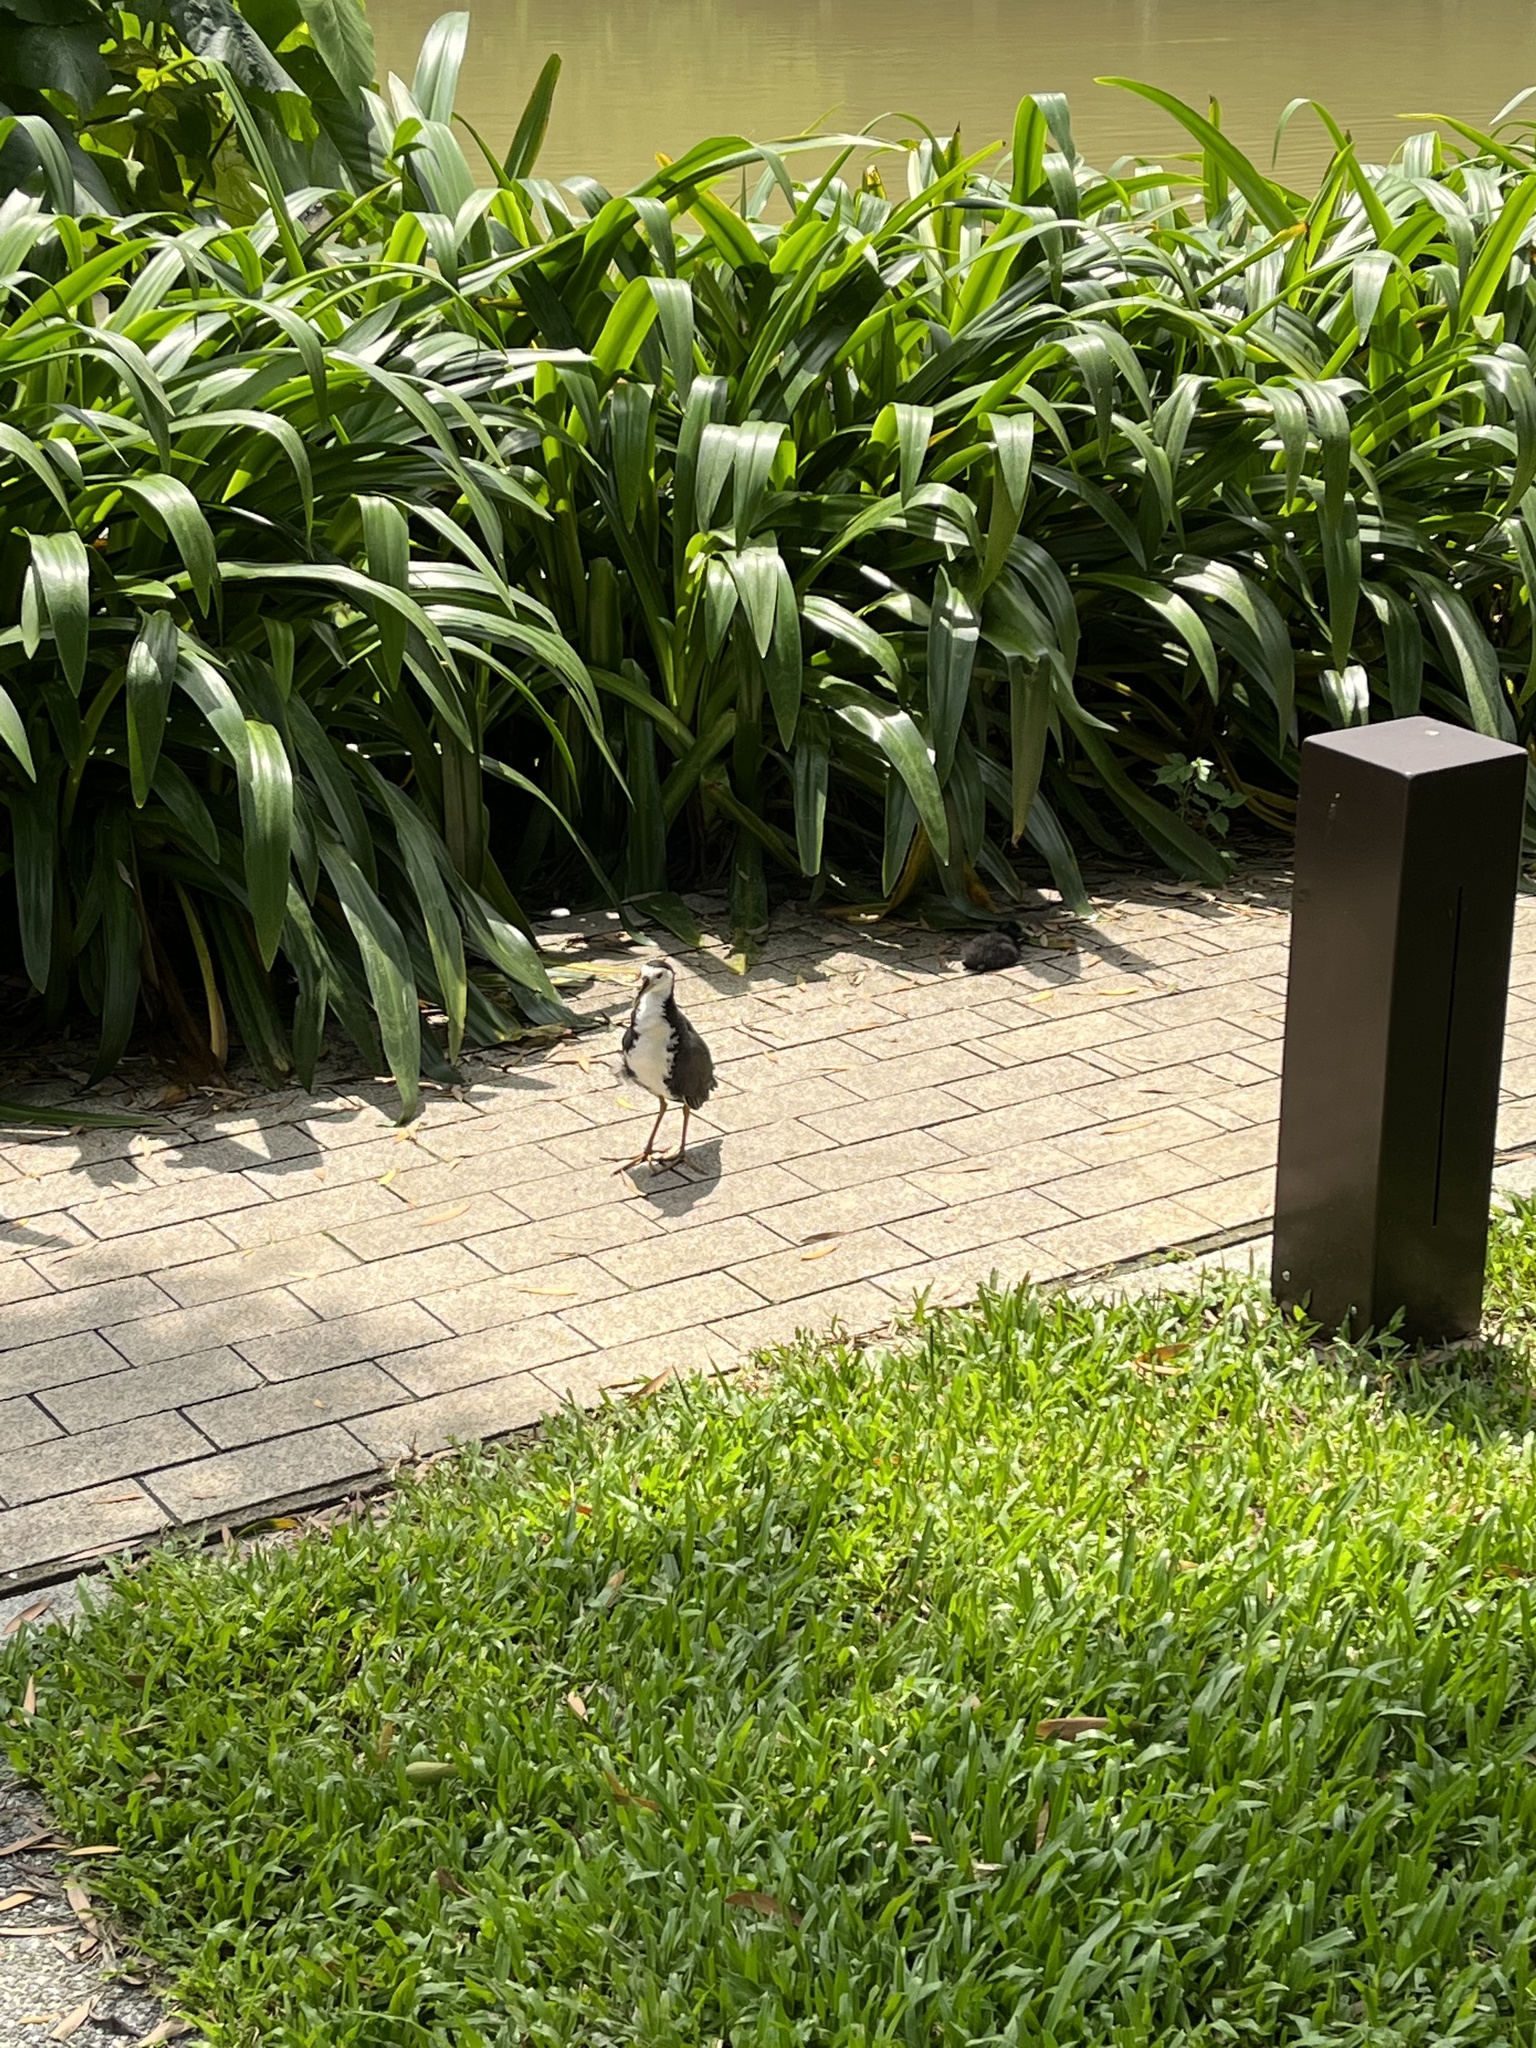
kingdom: Animalia
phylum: Chordata
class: Aves
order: Gruiformes
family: Rallidae
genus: Amaurornis
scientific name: Amaurornis phoenicurus
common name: White-breasted waterhen
